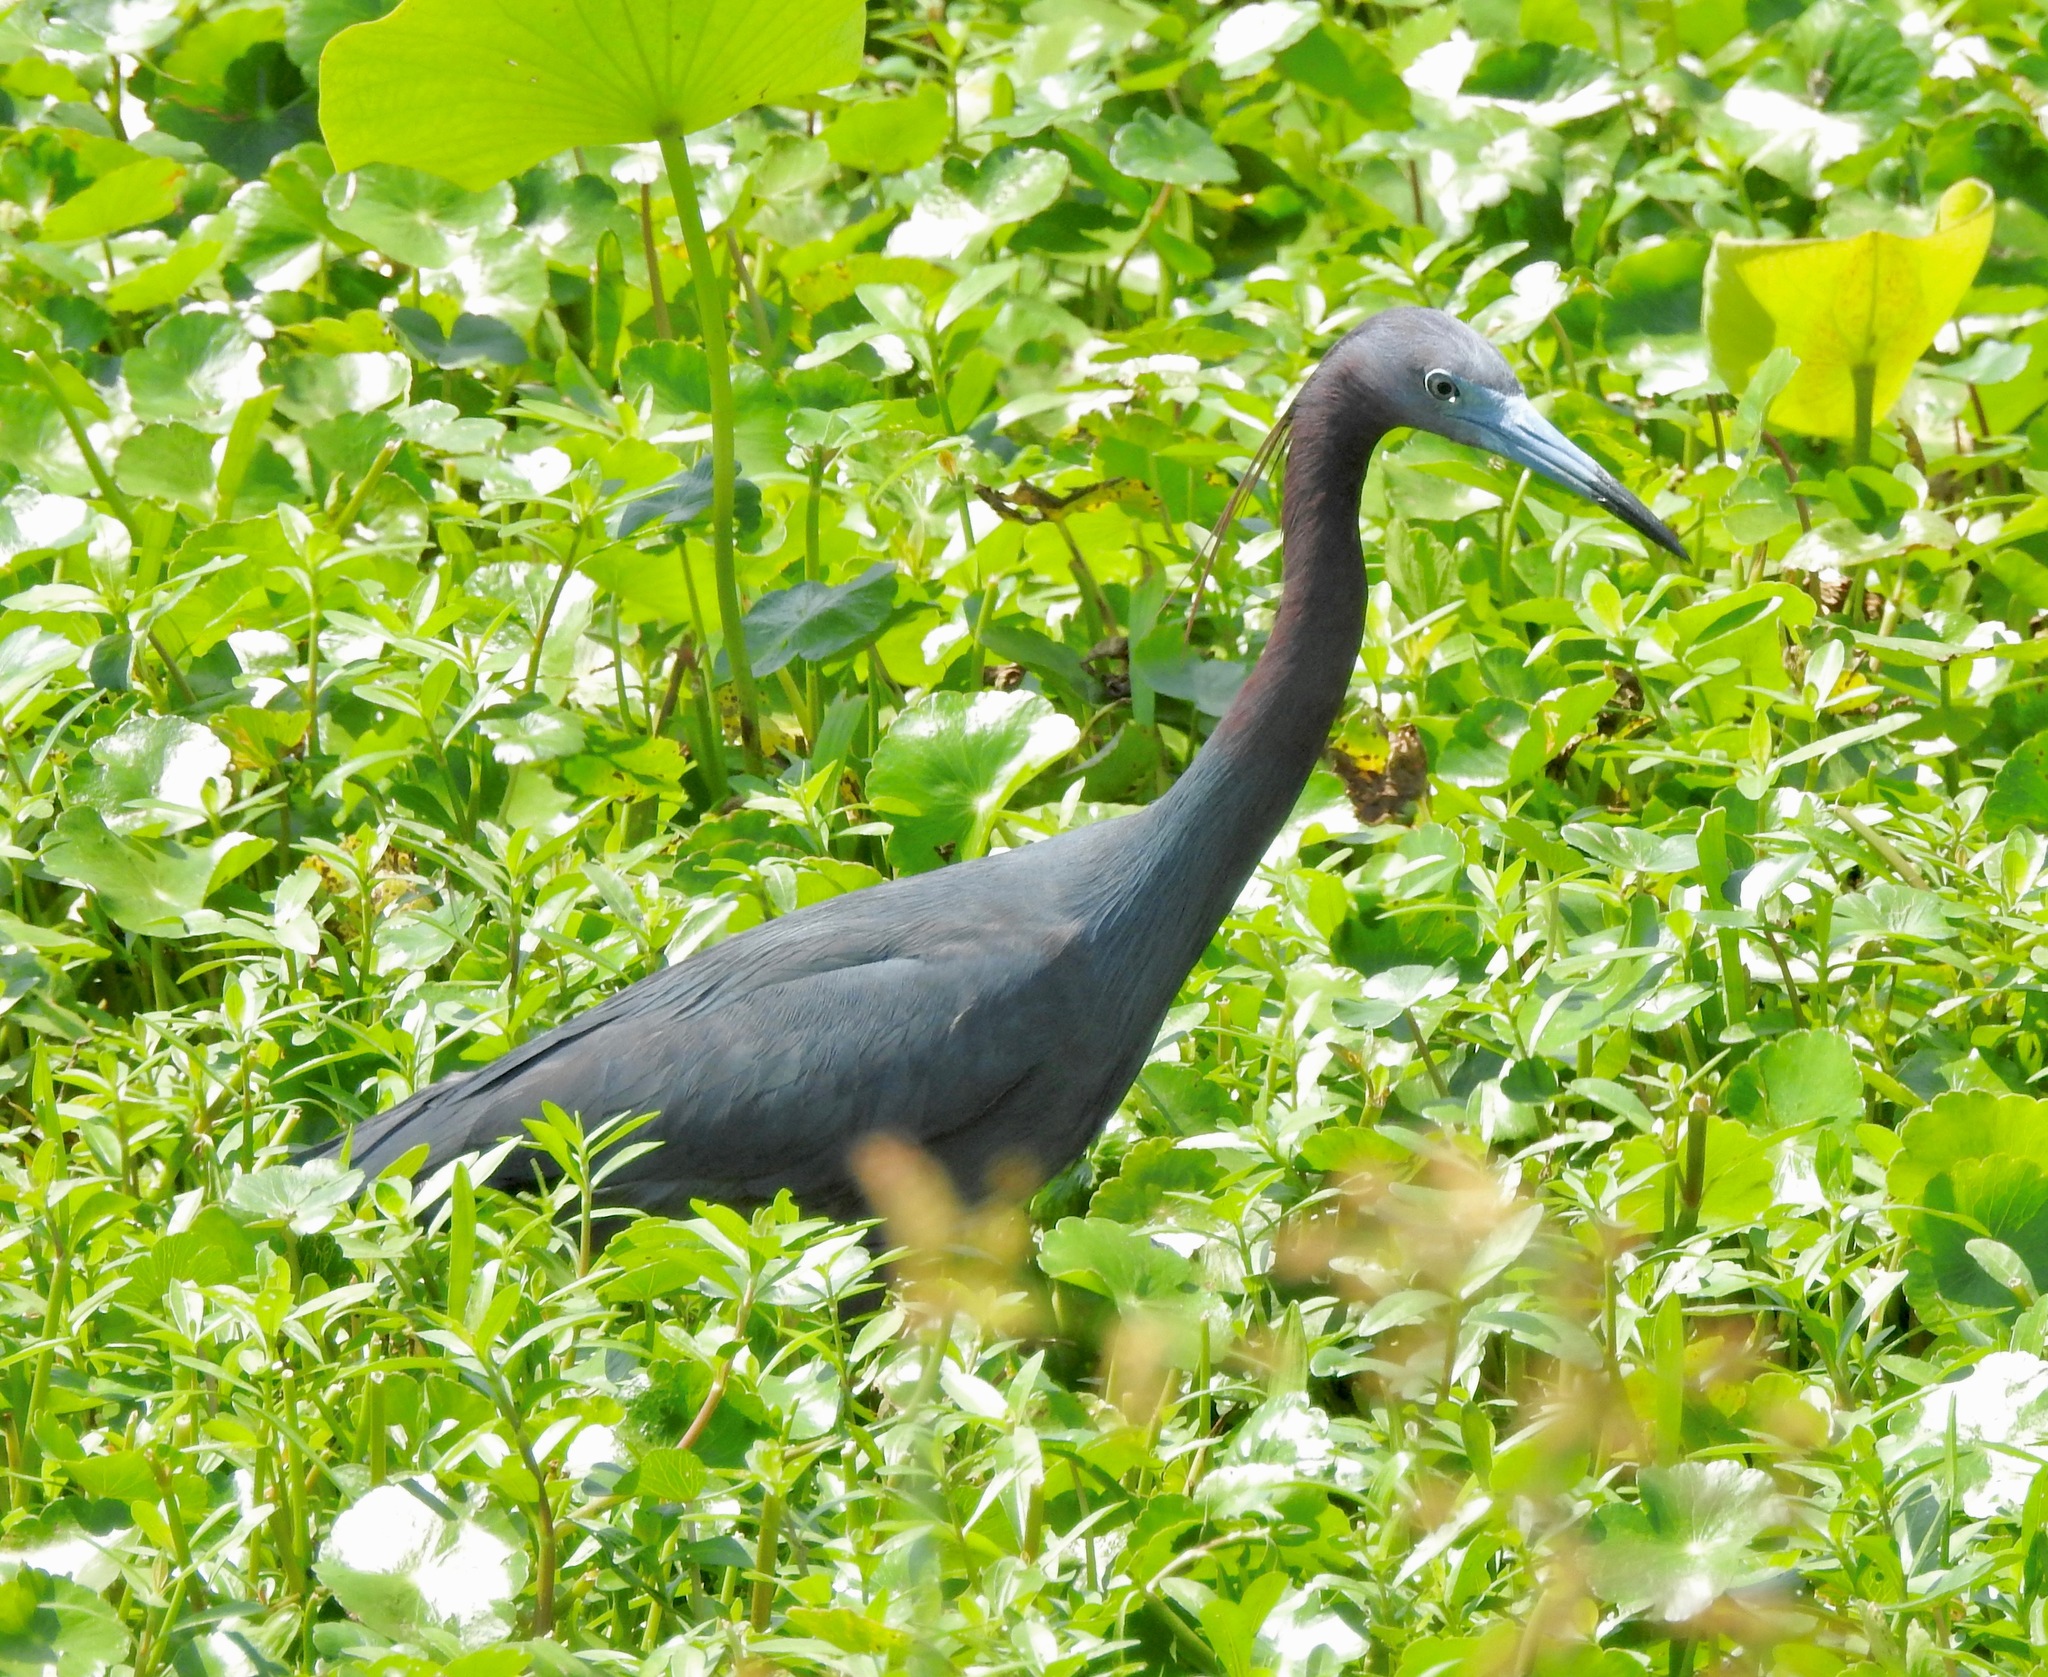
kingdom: Animalia
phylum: Chordata
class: Aves
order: Pelecaniformes
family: Ardeidae
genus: Egretta
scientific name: Egretta caerulea
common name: Little blue heron
